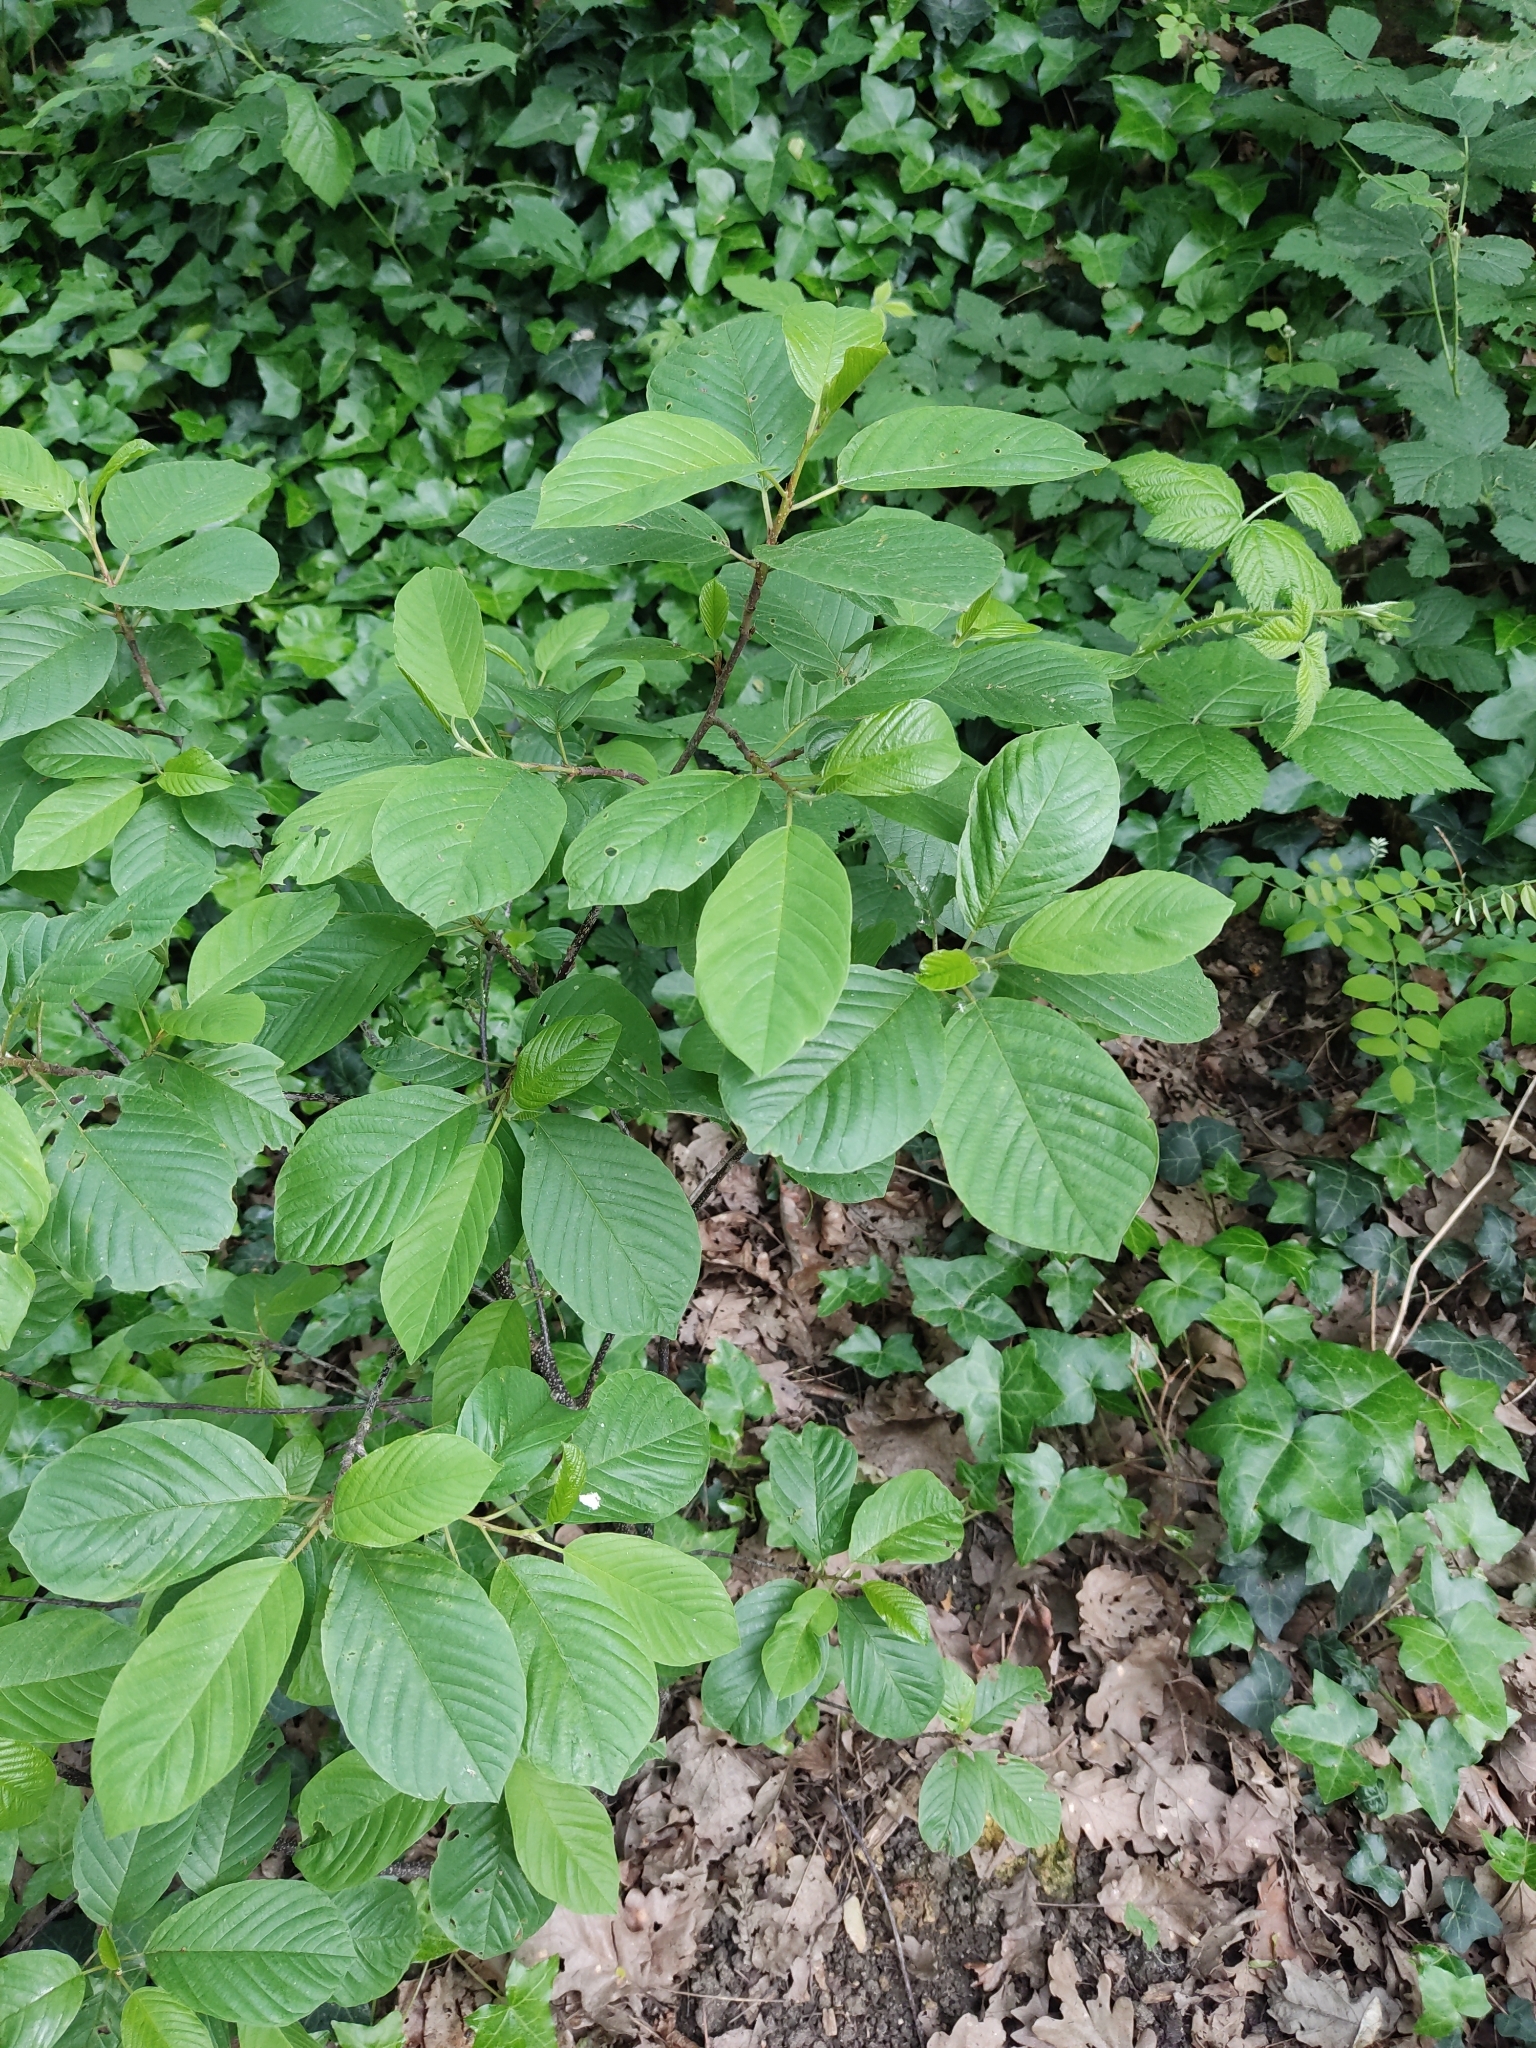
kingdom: Plantae
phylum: Tracheophyta
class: Magnoliopsida
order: Rosales
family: Rhamnaceae
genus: Frangula
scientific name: Frangula alnus
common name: Alder buckthorn
